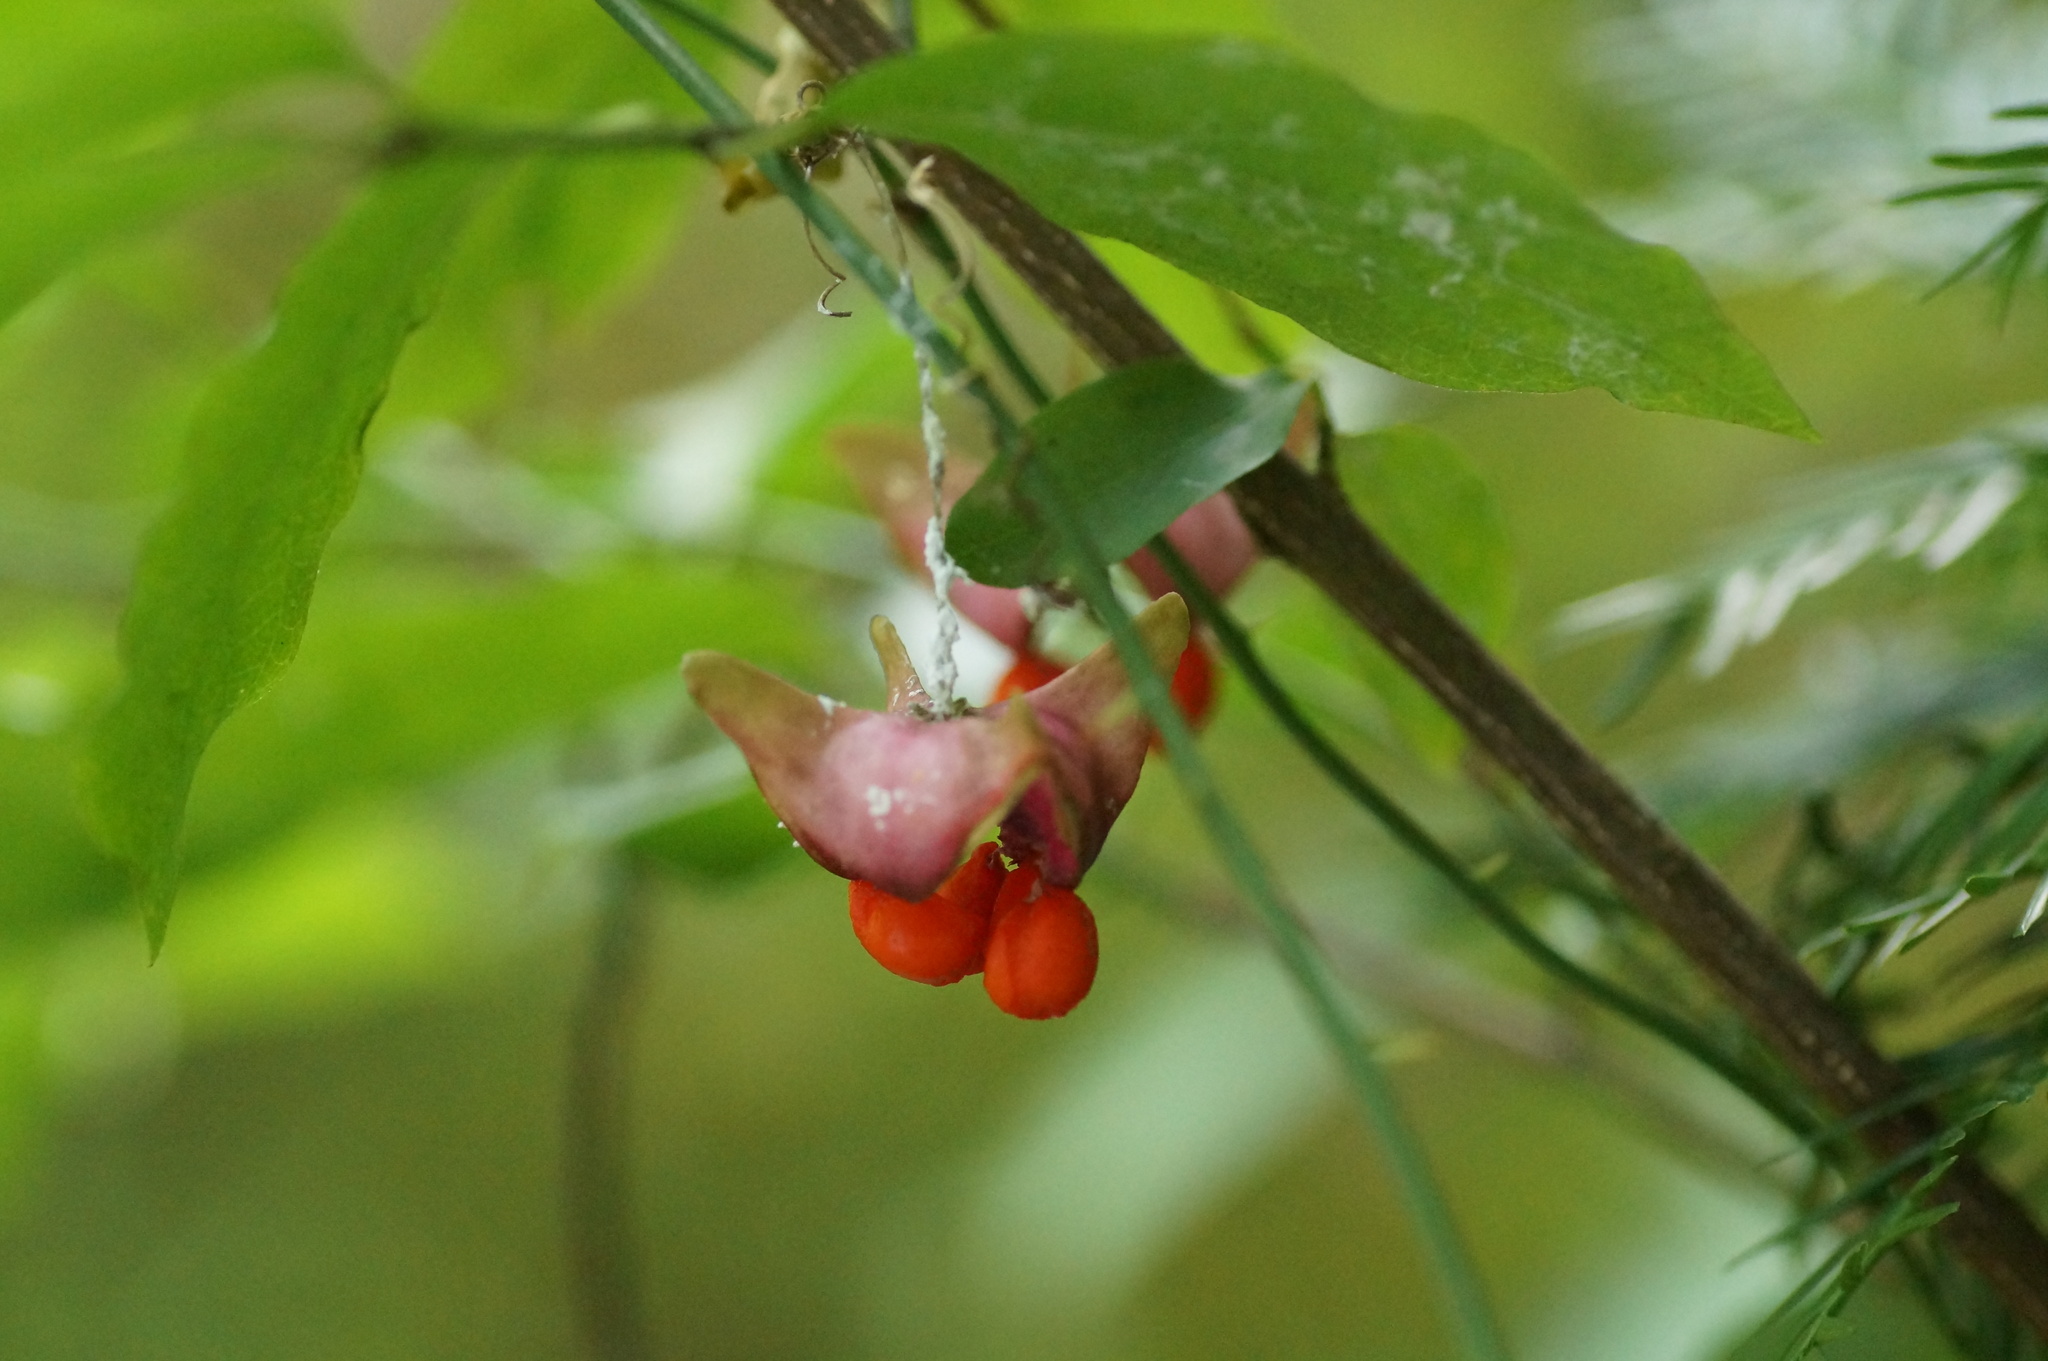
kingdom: Plantae
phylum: Tracheophyta
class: Magnoliopsida
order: Celastrales
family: Celastraceae
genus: Euonymus
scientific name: Euonymus latifolius
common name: Large-leaved spindle
